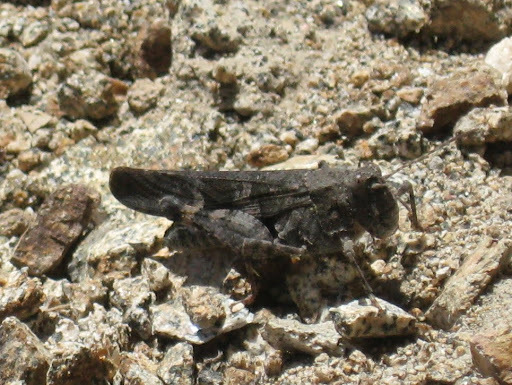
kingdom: Animalia
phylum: Arthropoda
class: Insecta
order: Orthoptera
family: Acrididae
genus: Trimerotropis
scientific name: Trimerotropis fontana
